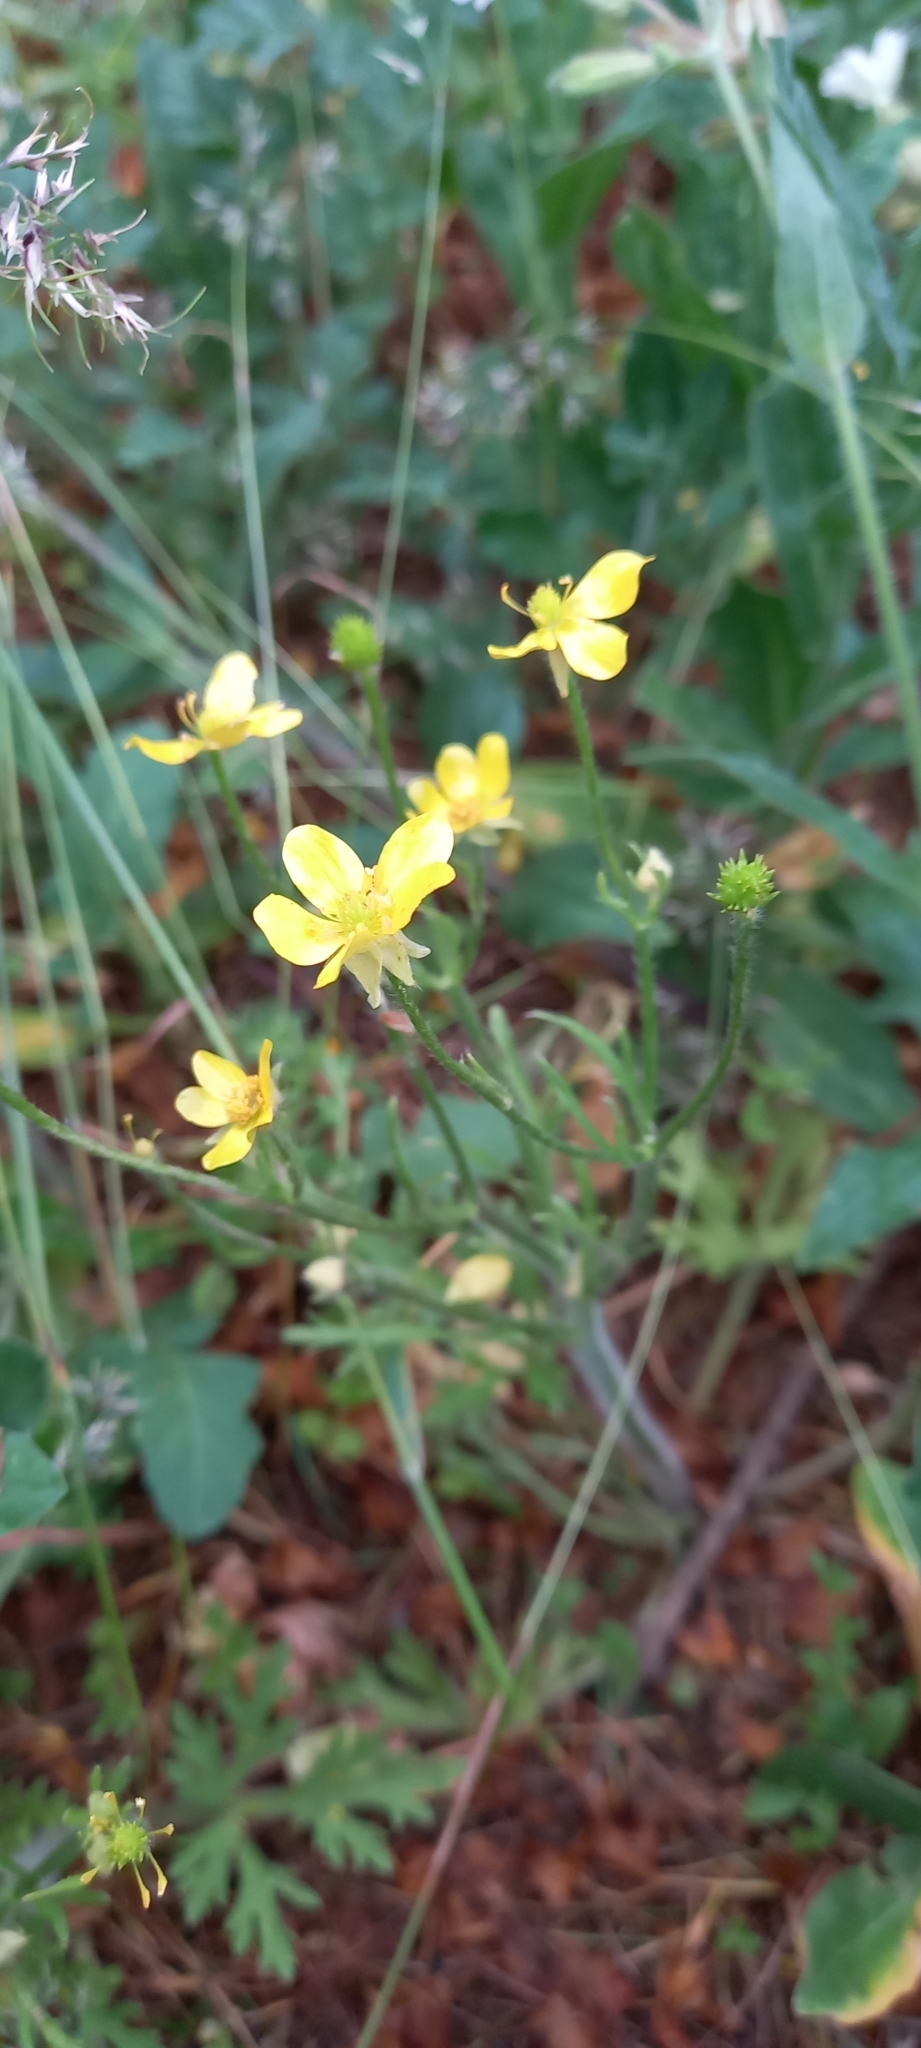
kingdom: Plantae
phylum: Tracheophyta
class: Magnoliopsida
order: Ranunculales
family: Ranunculaceae
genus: Ranunculus
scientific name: Ranunculus oxyspermus
